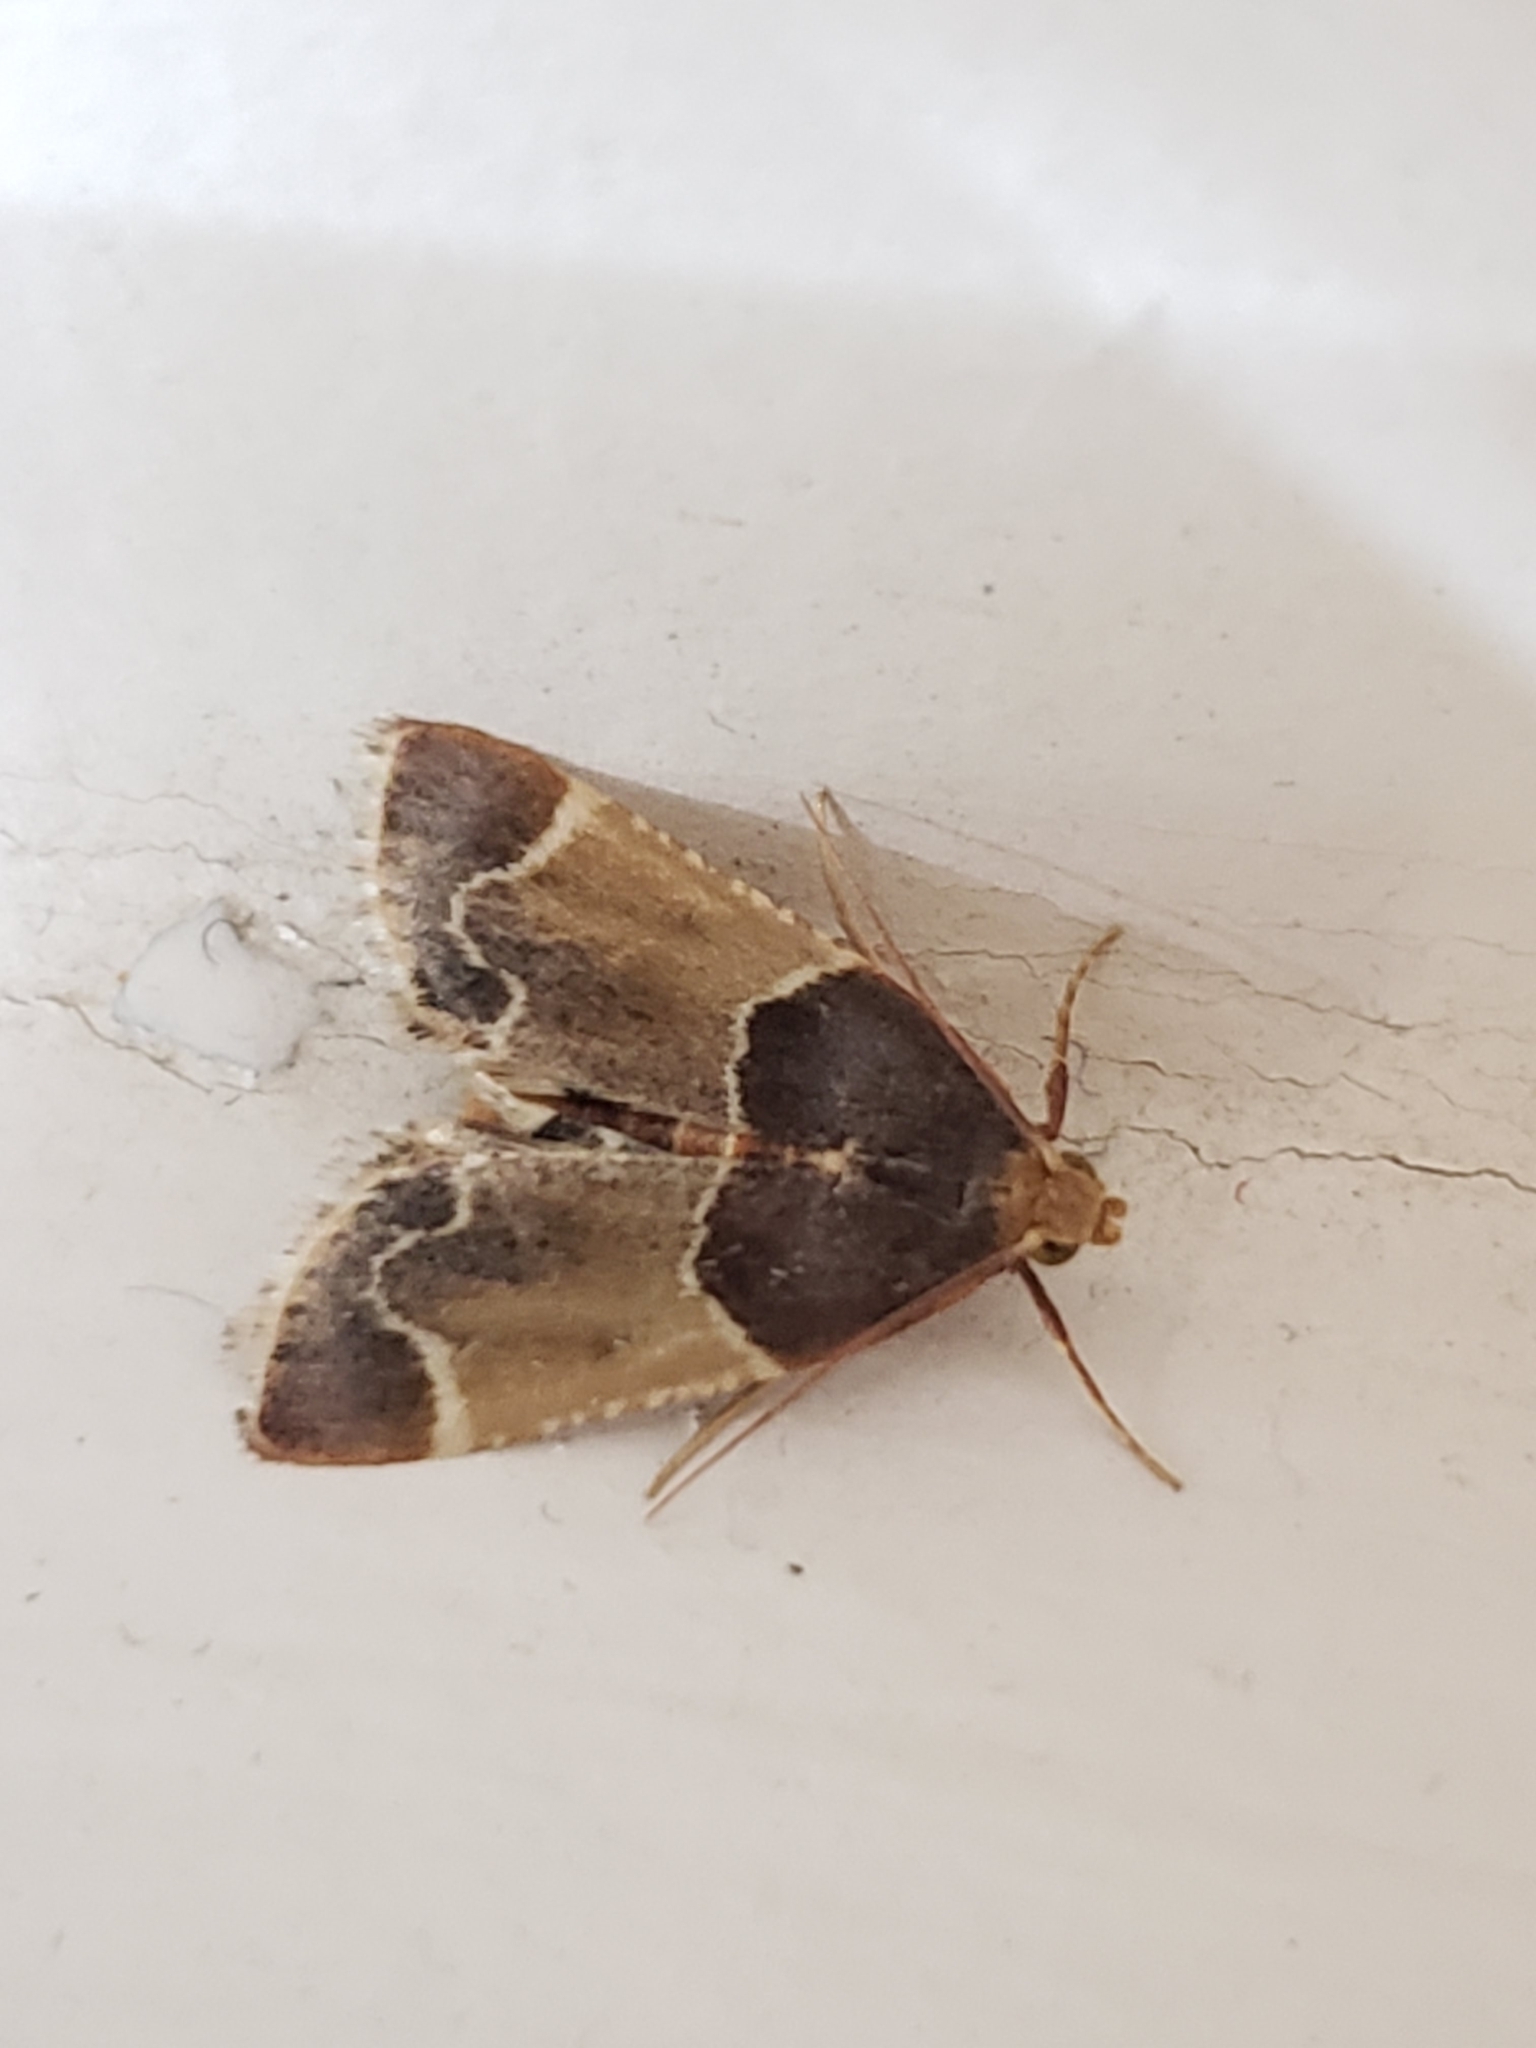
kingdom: Animalia
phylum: Arthropoda
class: Insecta
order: Lepidoptera
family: Pyralidae
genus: Pyralis
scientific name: Pyralis farinalis
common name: Meal moth
